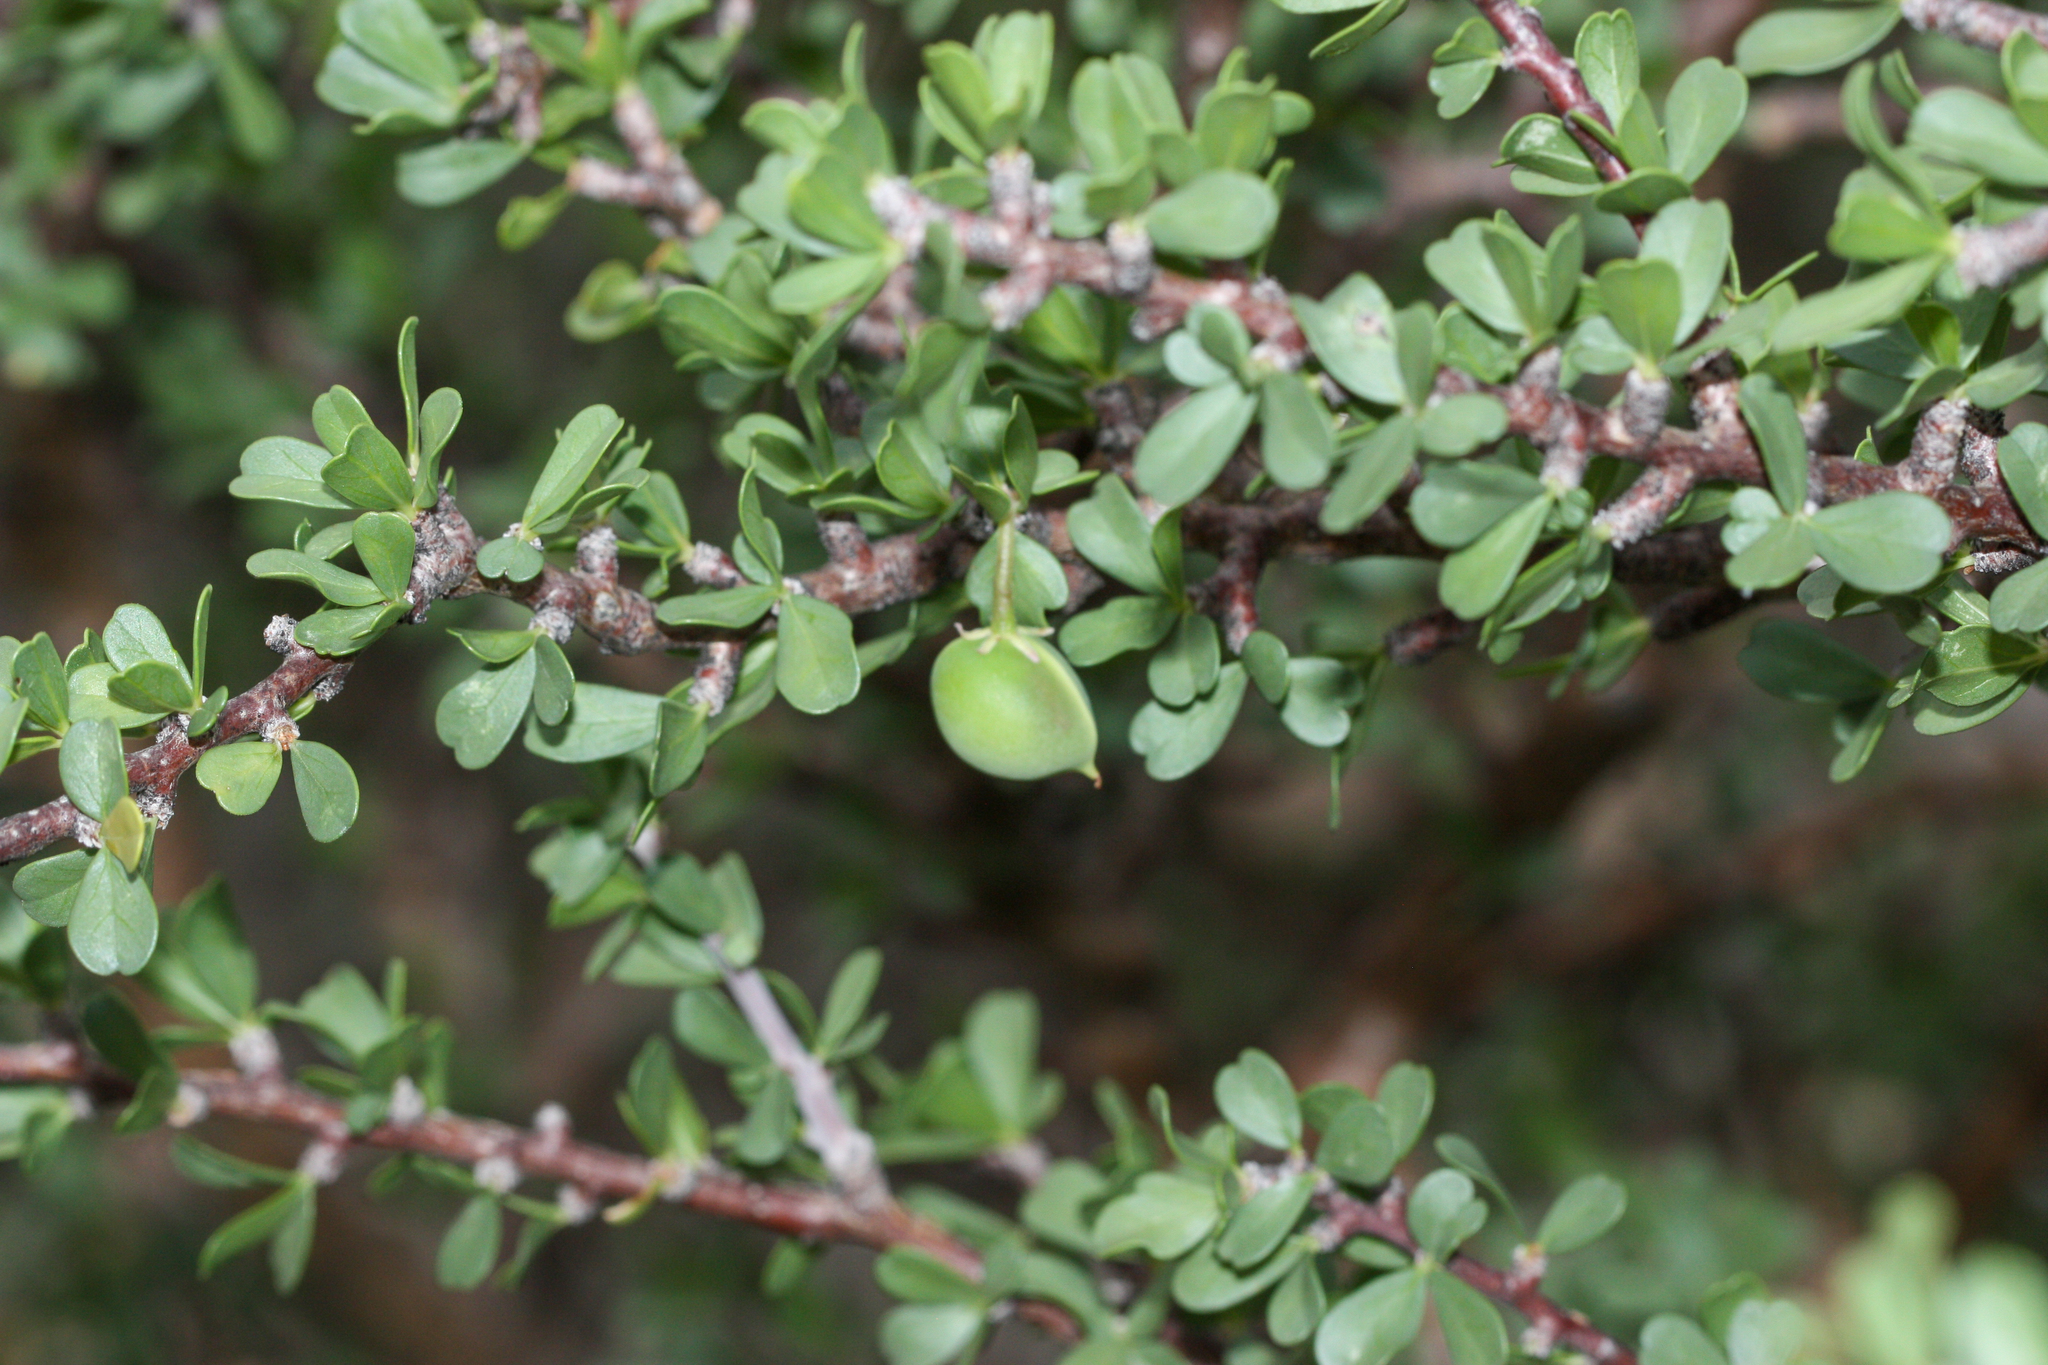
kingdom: Plantae
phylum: Tracheophyta
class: Magnoliopsida
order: Malpighiales
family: Euphorbiaceae
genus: Jatropha
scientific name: Jatropha cuneata
